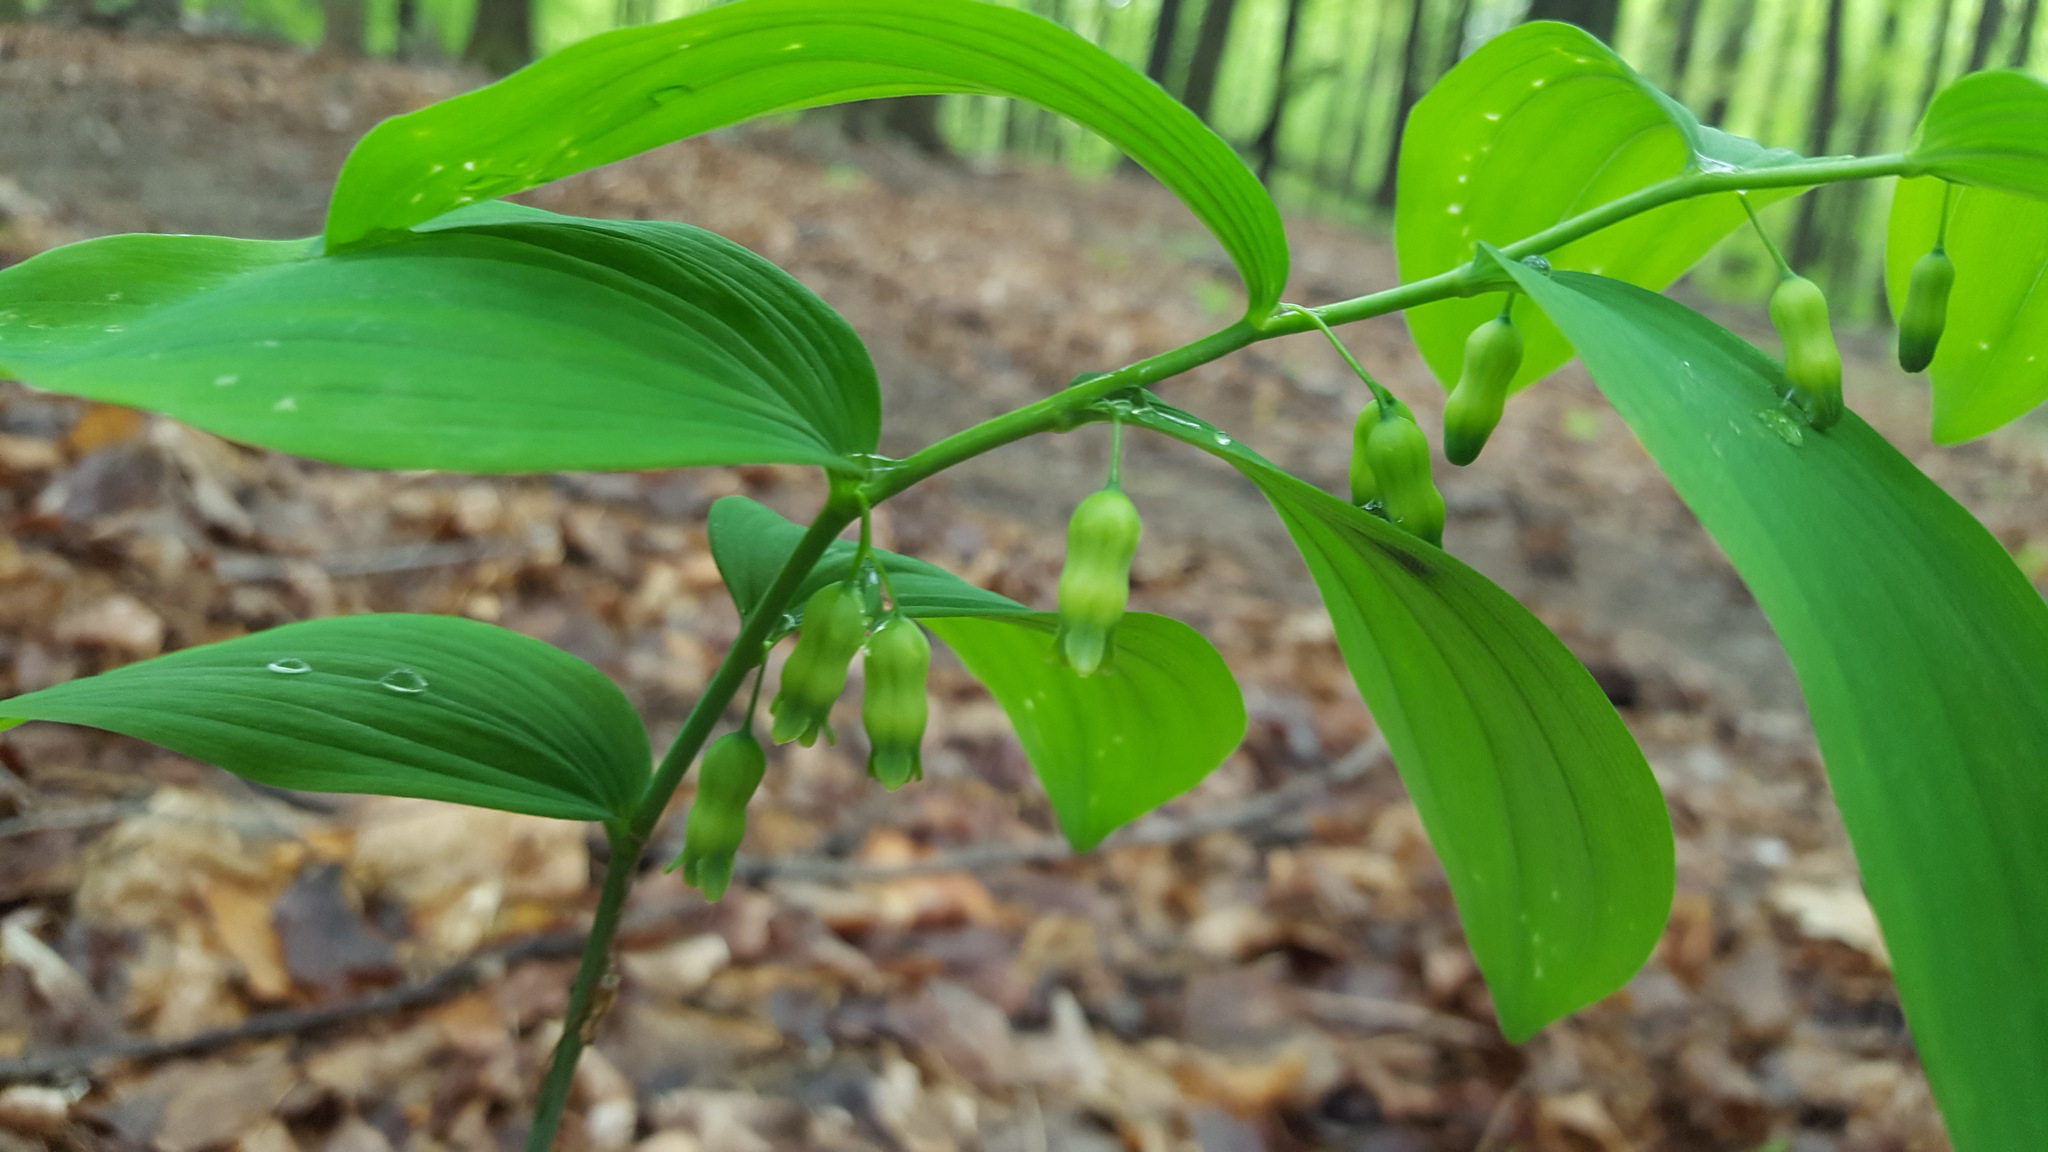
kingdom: Plantae
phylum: Tracheophyta
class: Liliopsida
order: Asparagales
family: Asparagaceae
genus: Polygonatum
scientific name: Polygonatum pubescens
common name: Downy solomon's seal
